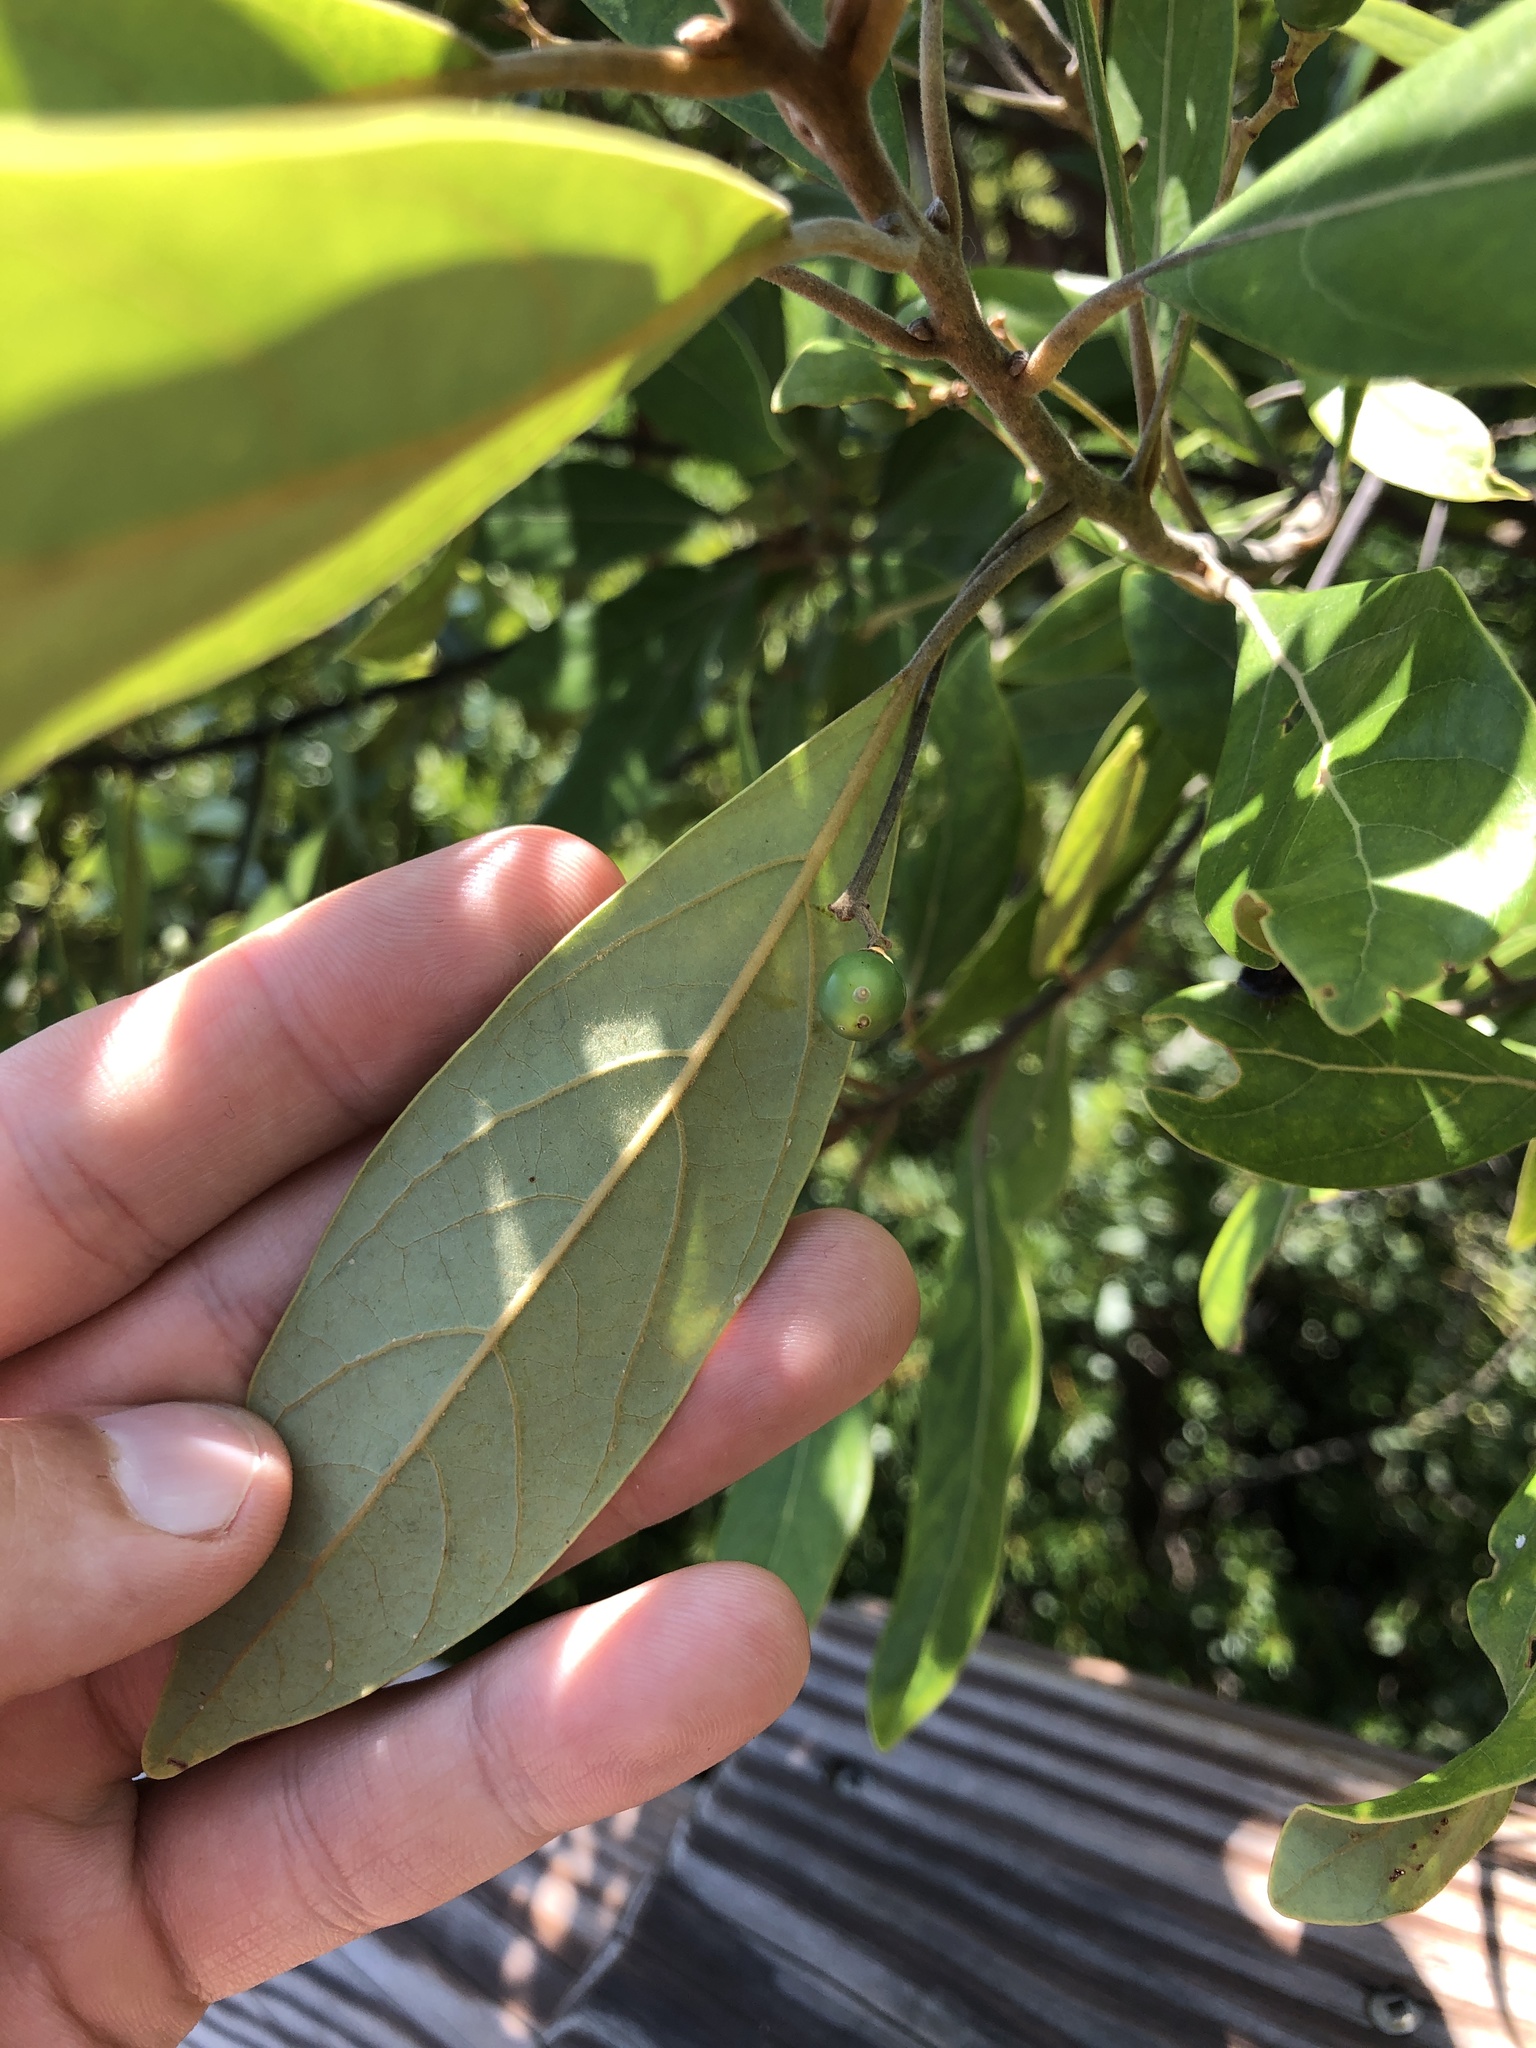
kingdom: Plantae
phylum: Tracheophyta
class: Magnoliopsida
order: Laurales
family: Lauraceae
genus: Persea
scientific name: Persea palustris
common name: Swampbay
